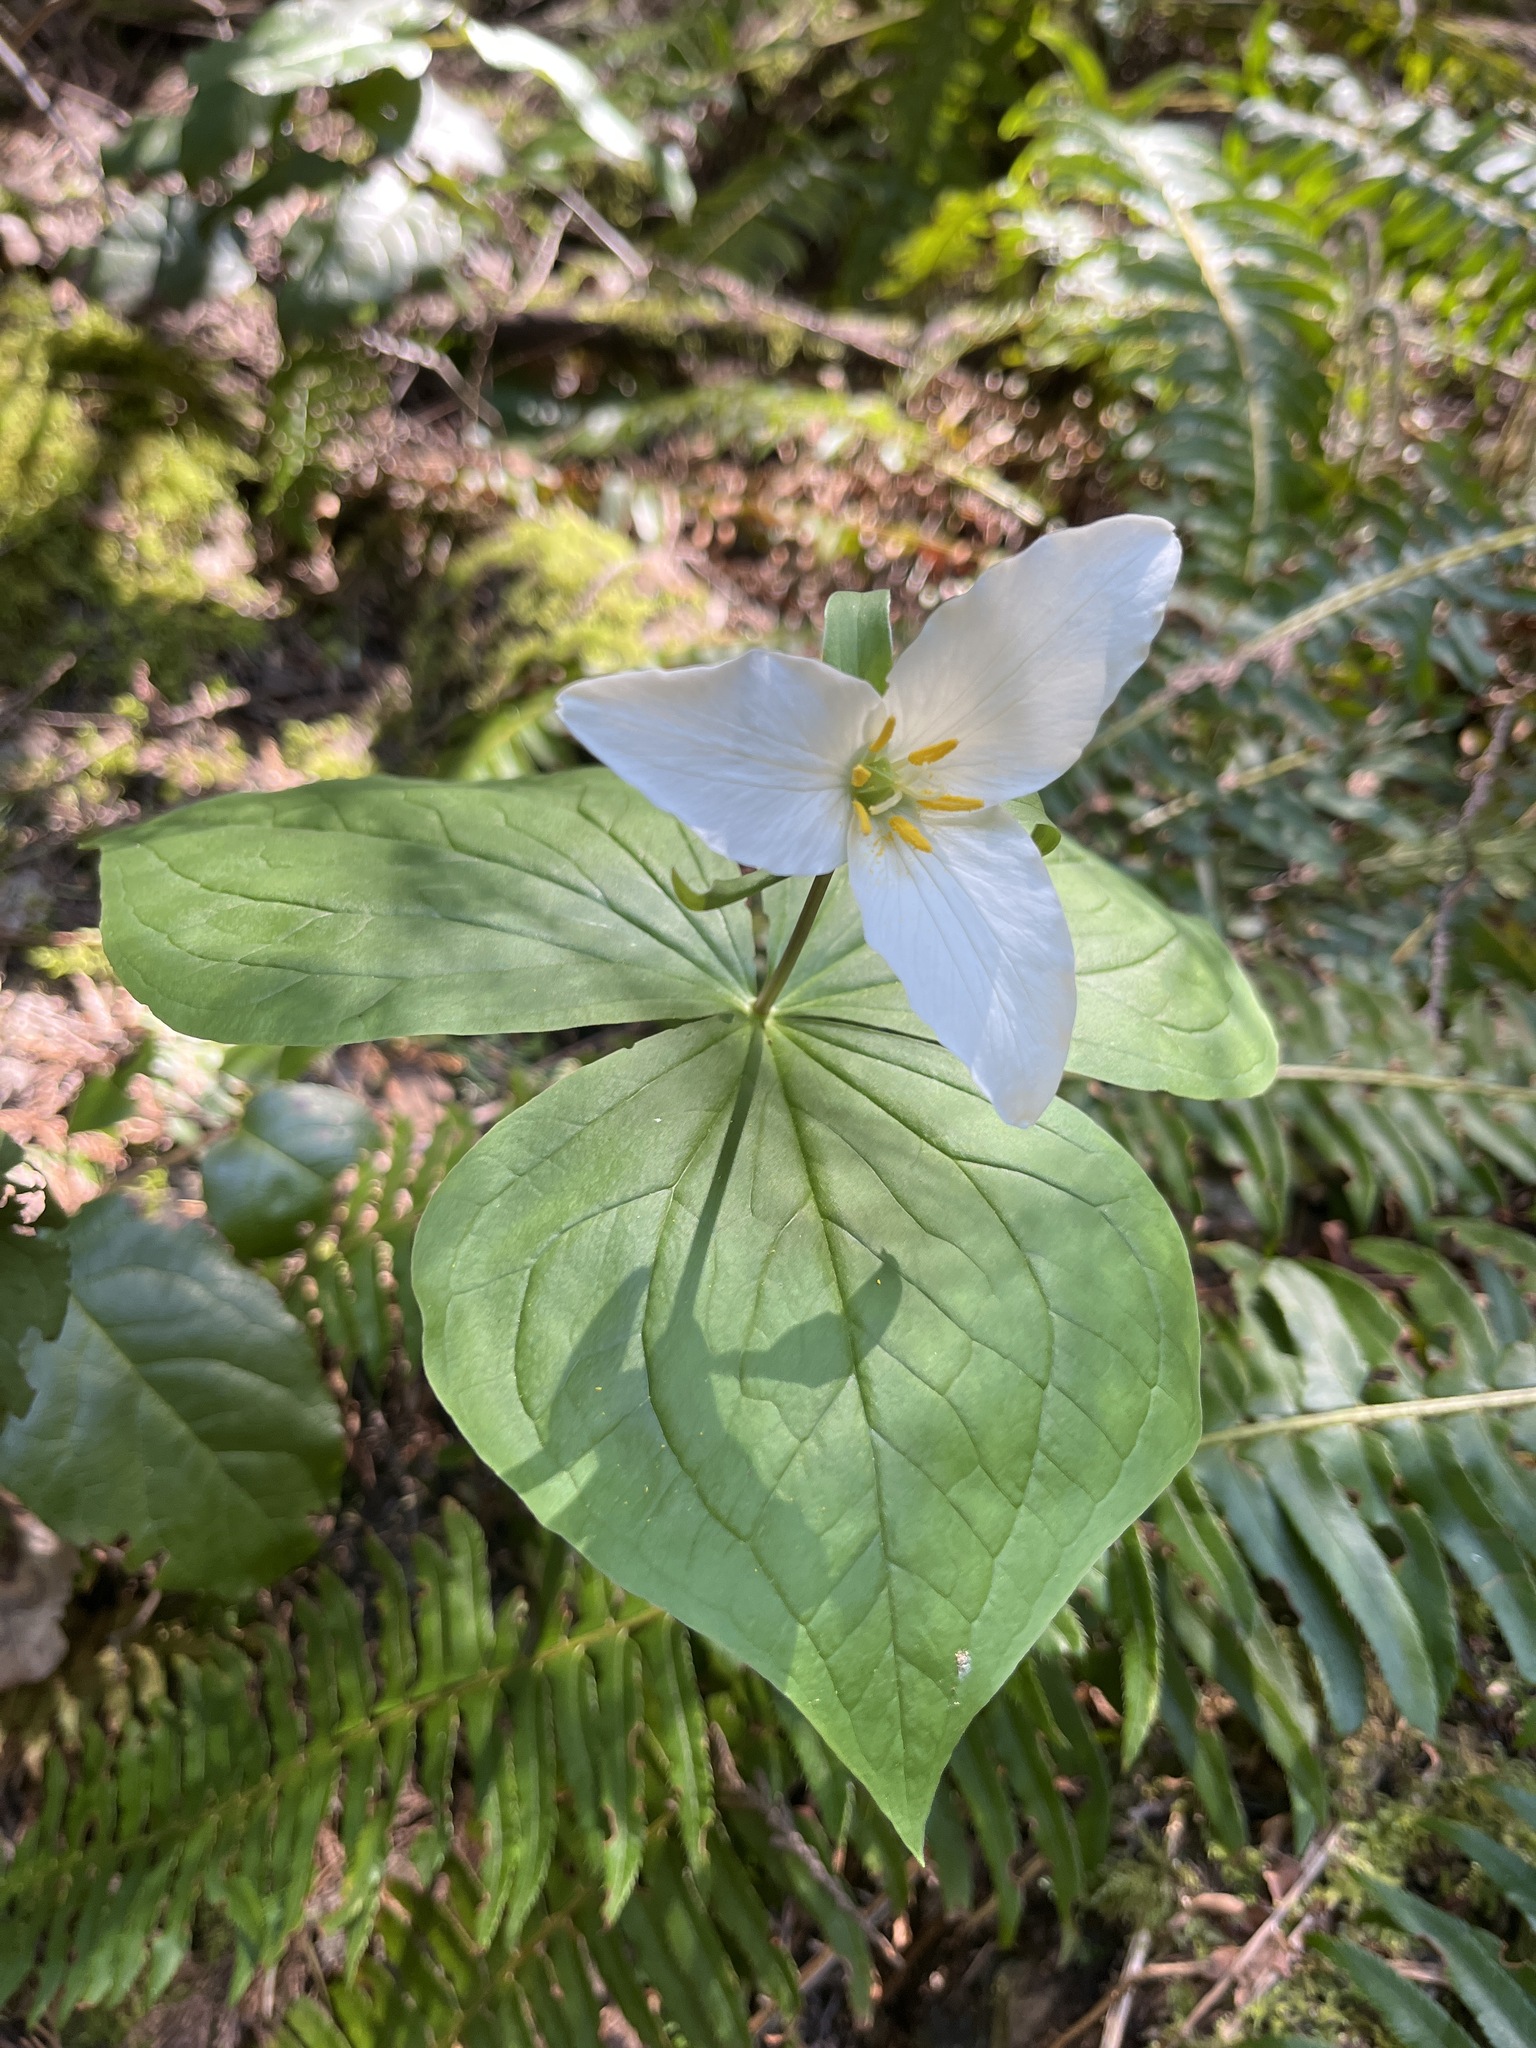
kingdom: Plantae
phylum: Tracheophyta
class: Liliopsida
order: Liliales
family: Melanthiaceae
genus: Trillium
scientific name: Trillium ovatum
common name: Pacific trillium
